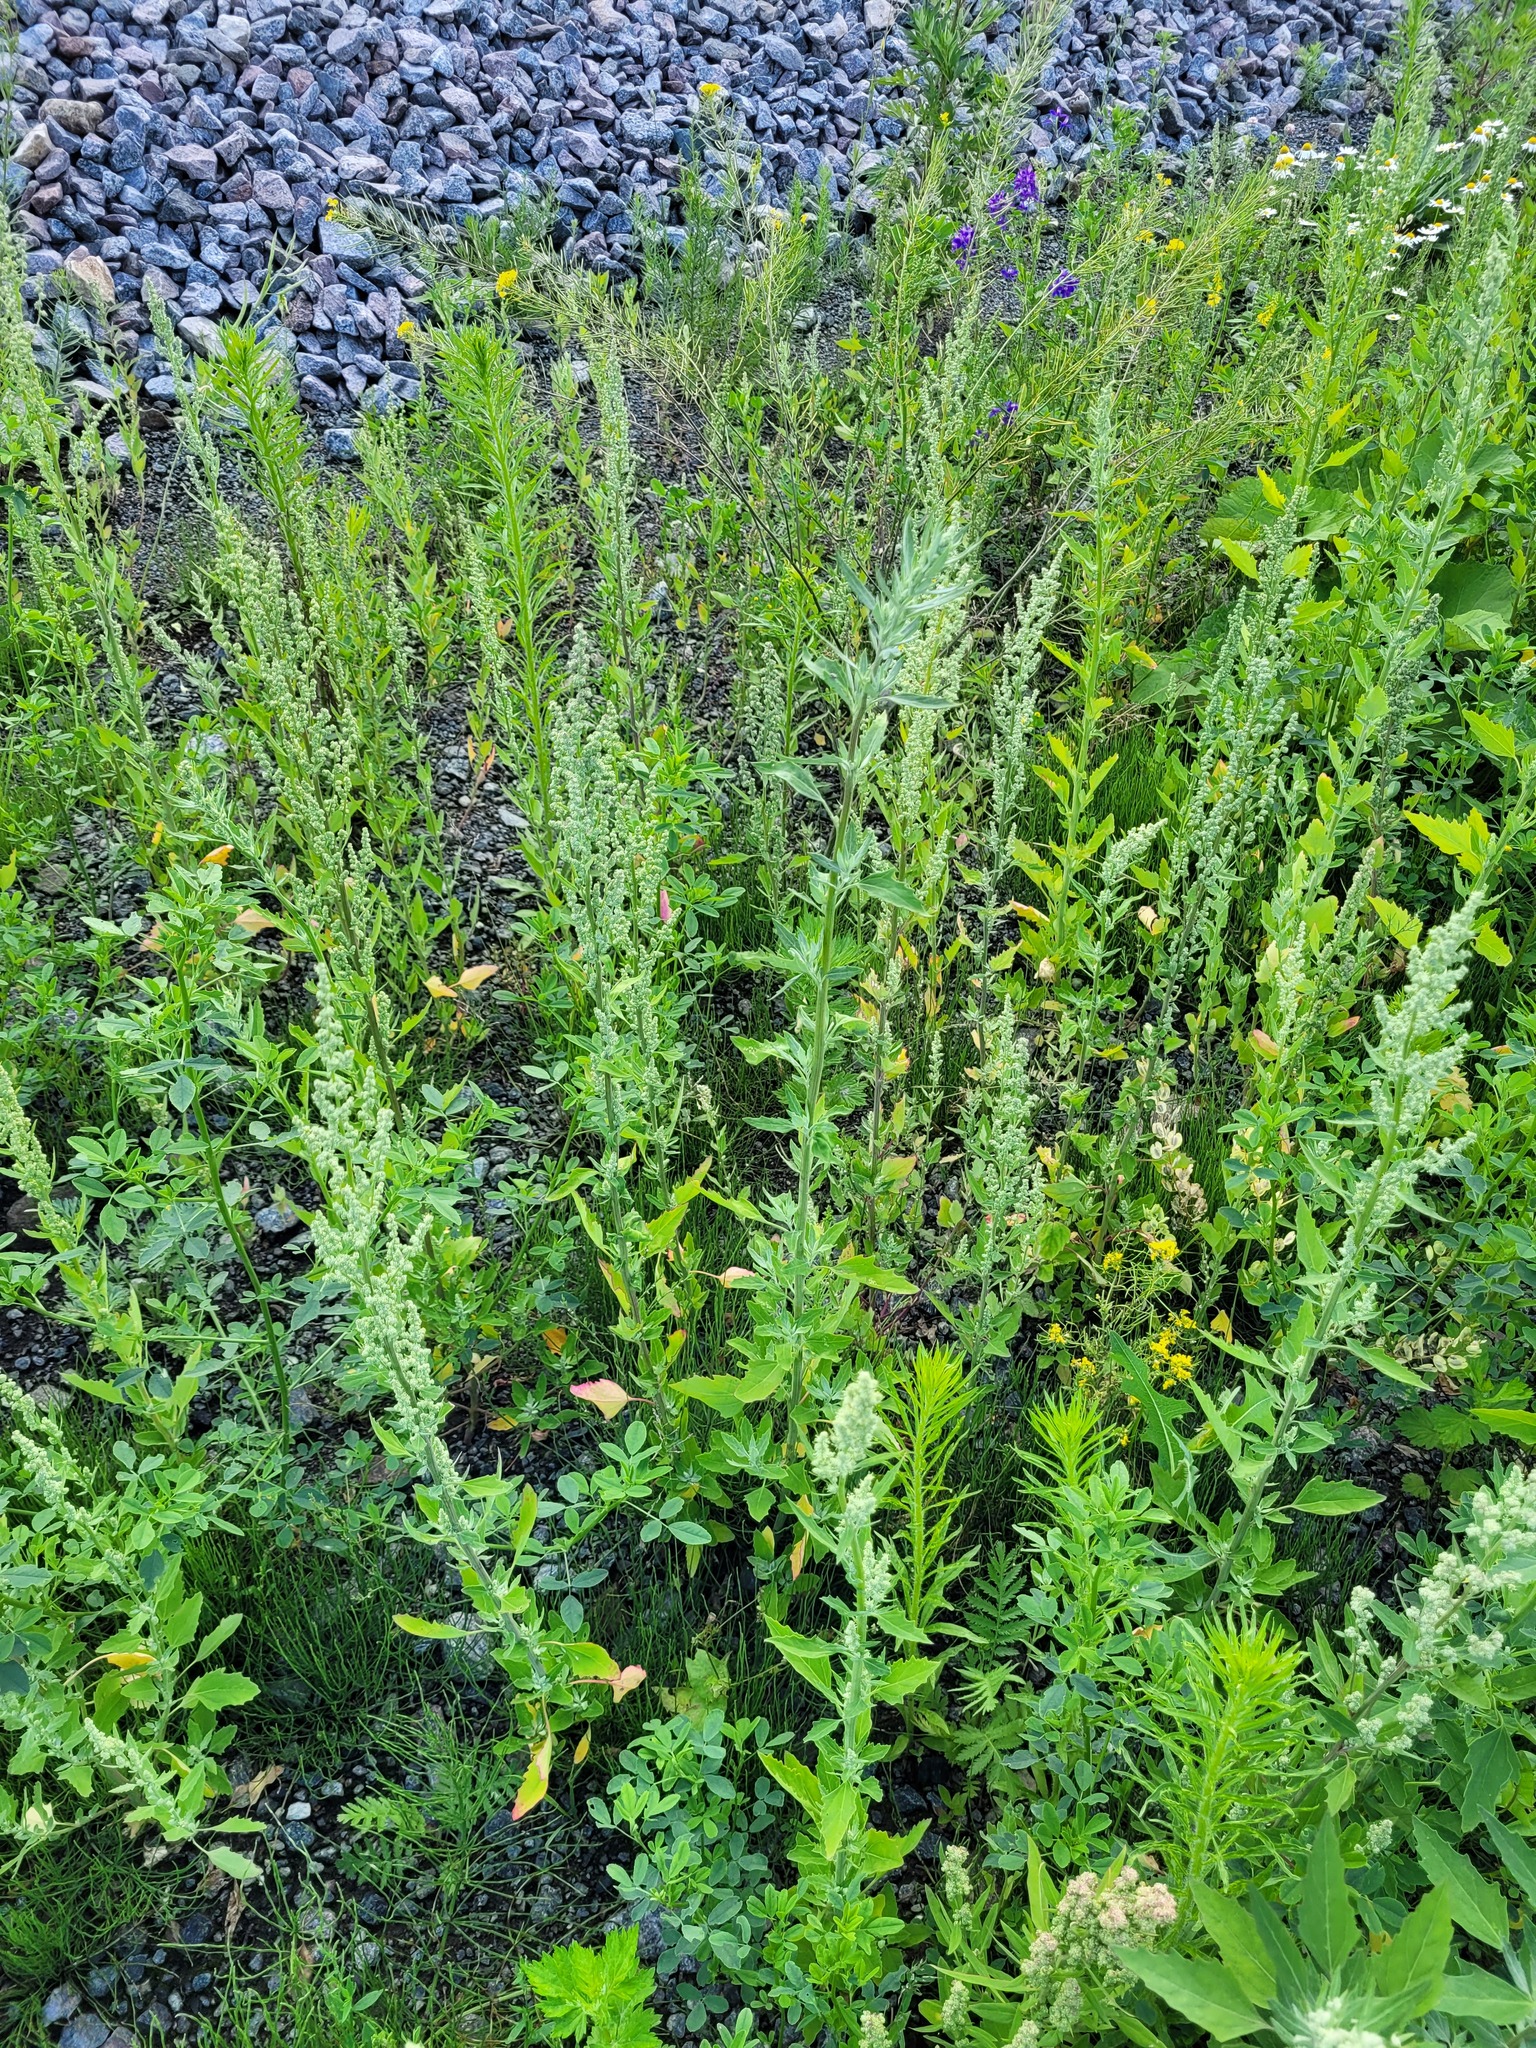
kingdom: Plantae
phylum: Tracheophyta
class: Magnoliopsida
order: Caryophyllales
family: Amaranthaceae
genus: Chenopodium
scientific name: Chenopodium album
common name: Fat-hen
